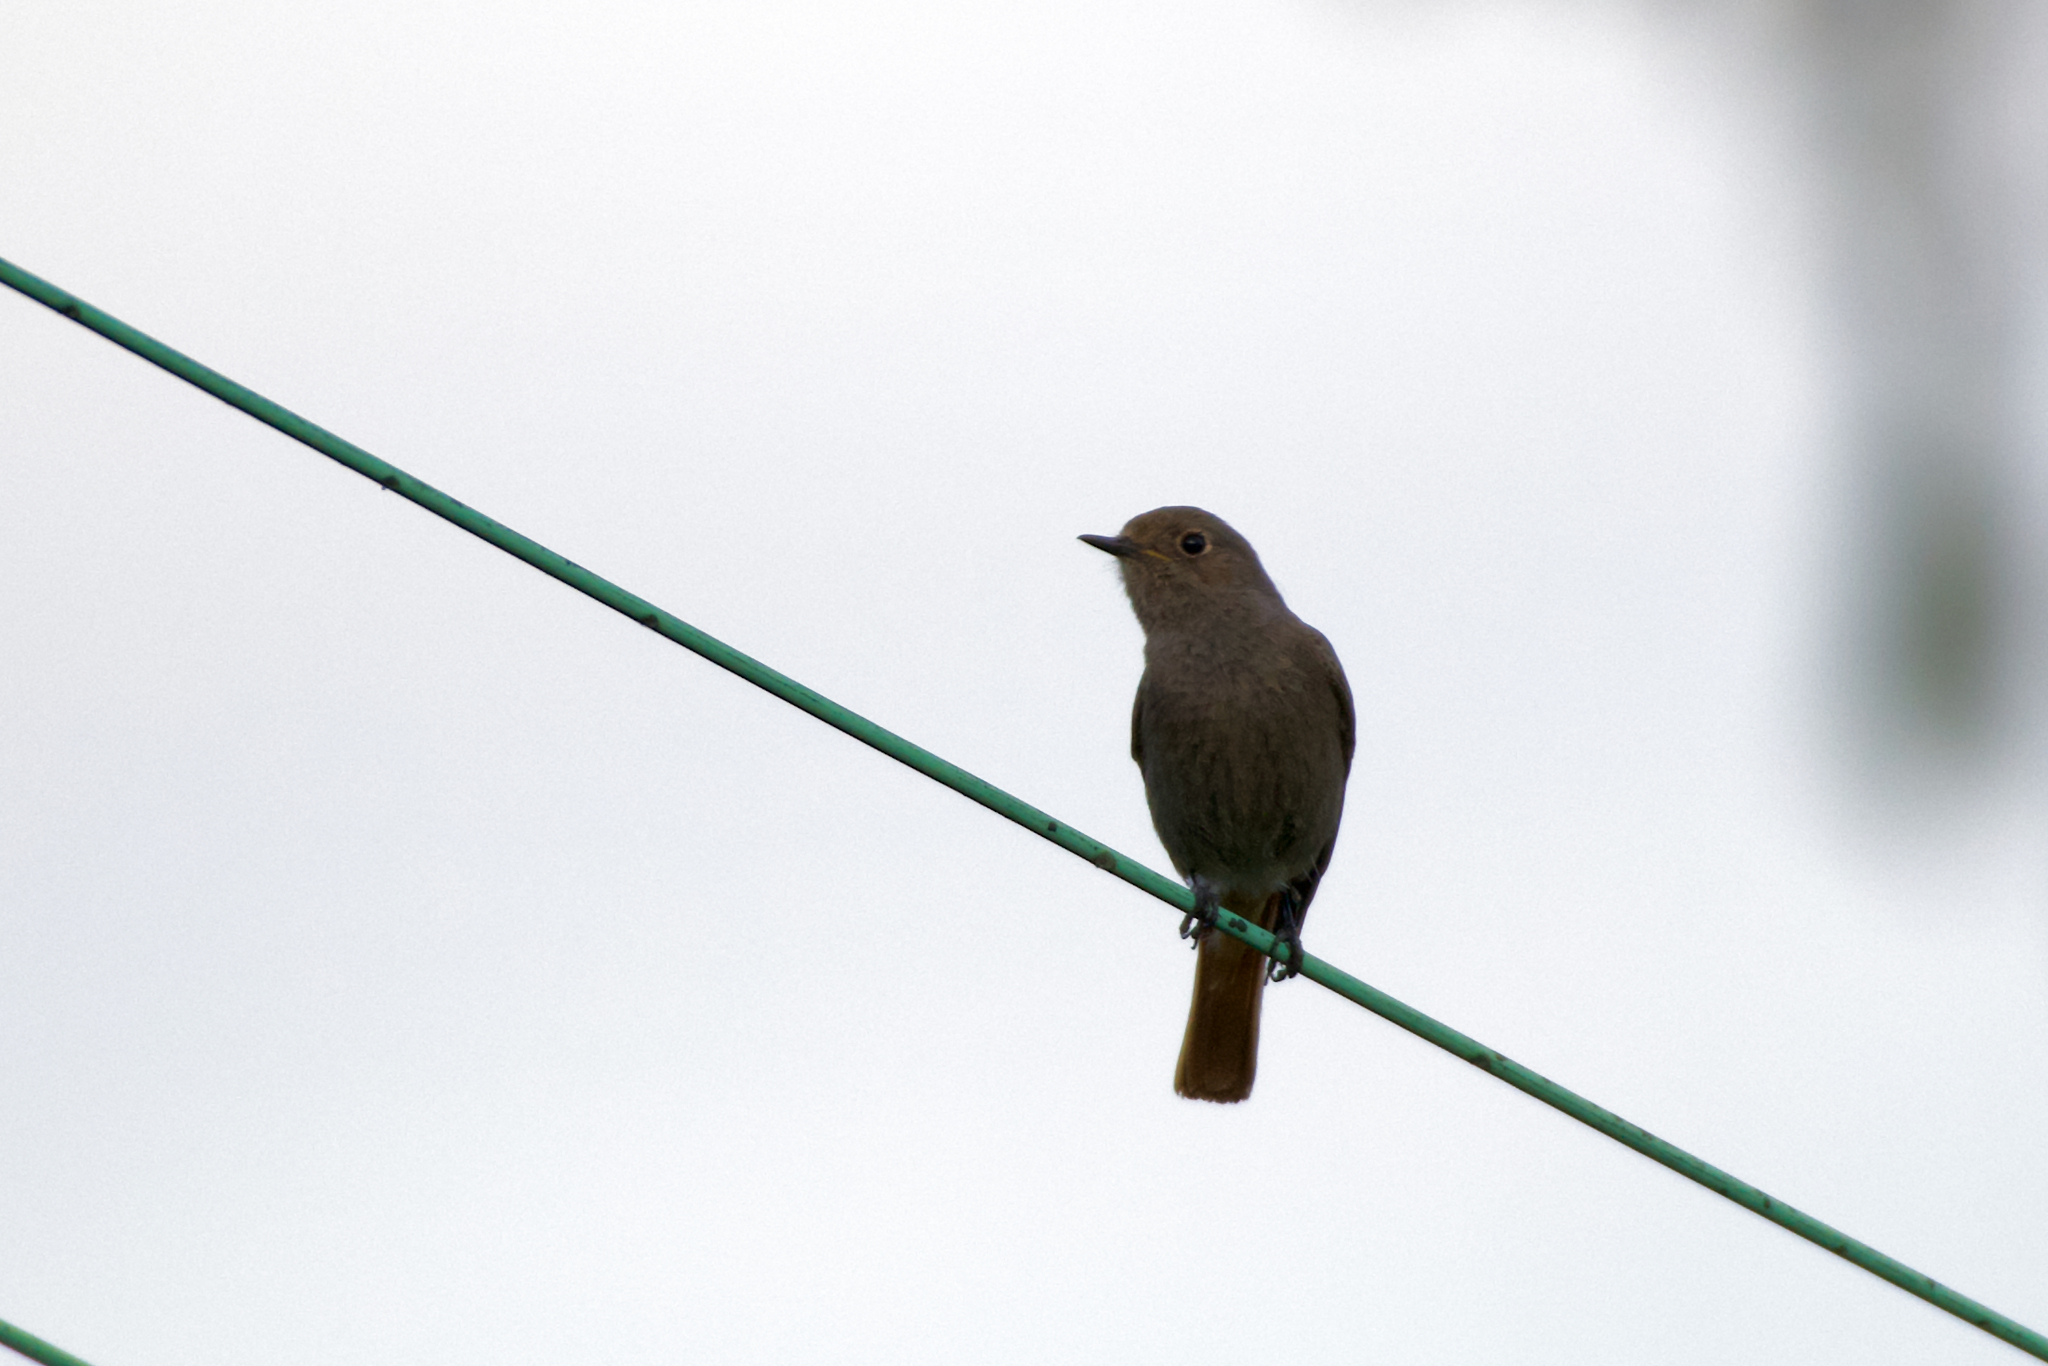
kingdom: Animalia
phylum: Chordata
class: Aves
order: Passeriformes
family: Muscicapidae
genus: Phoenicurus
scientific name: Phoenicurus ochruros
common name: Black redstart
